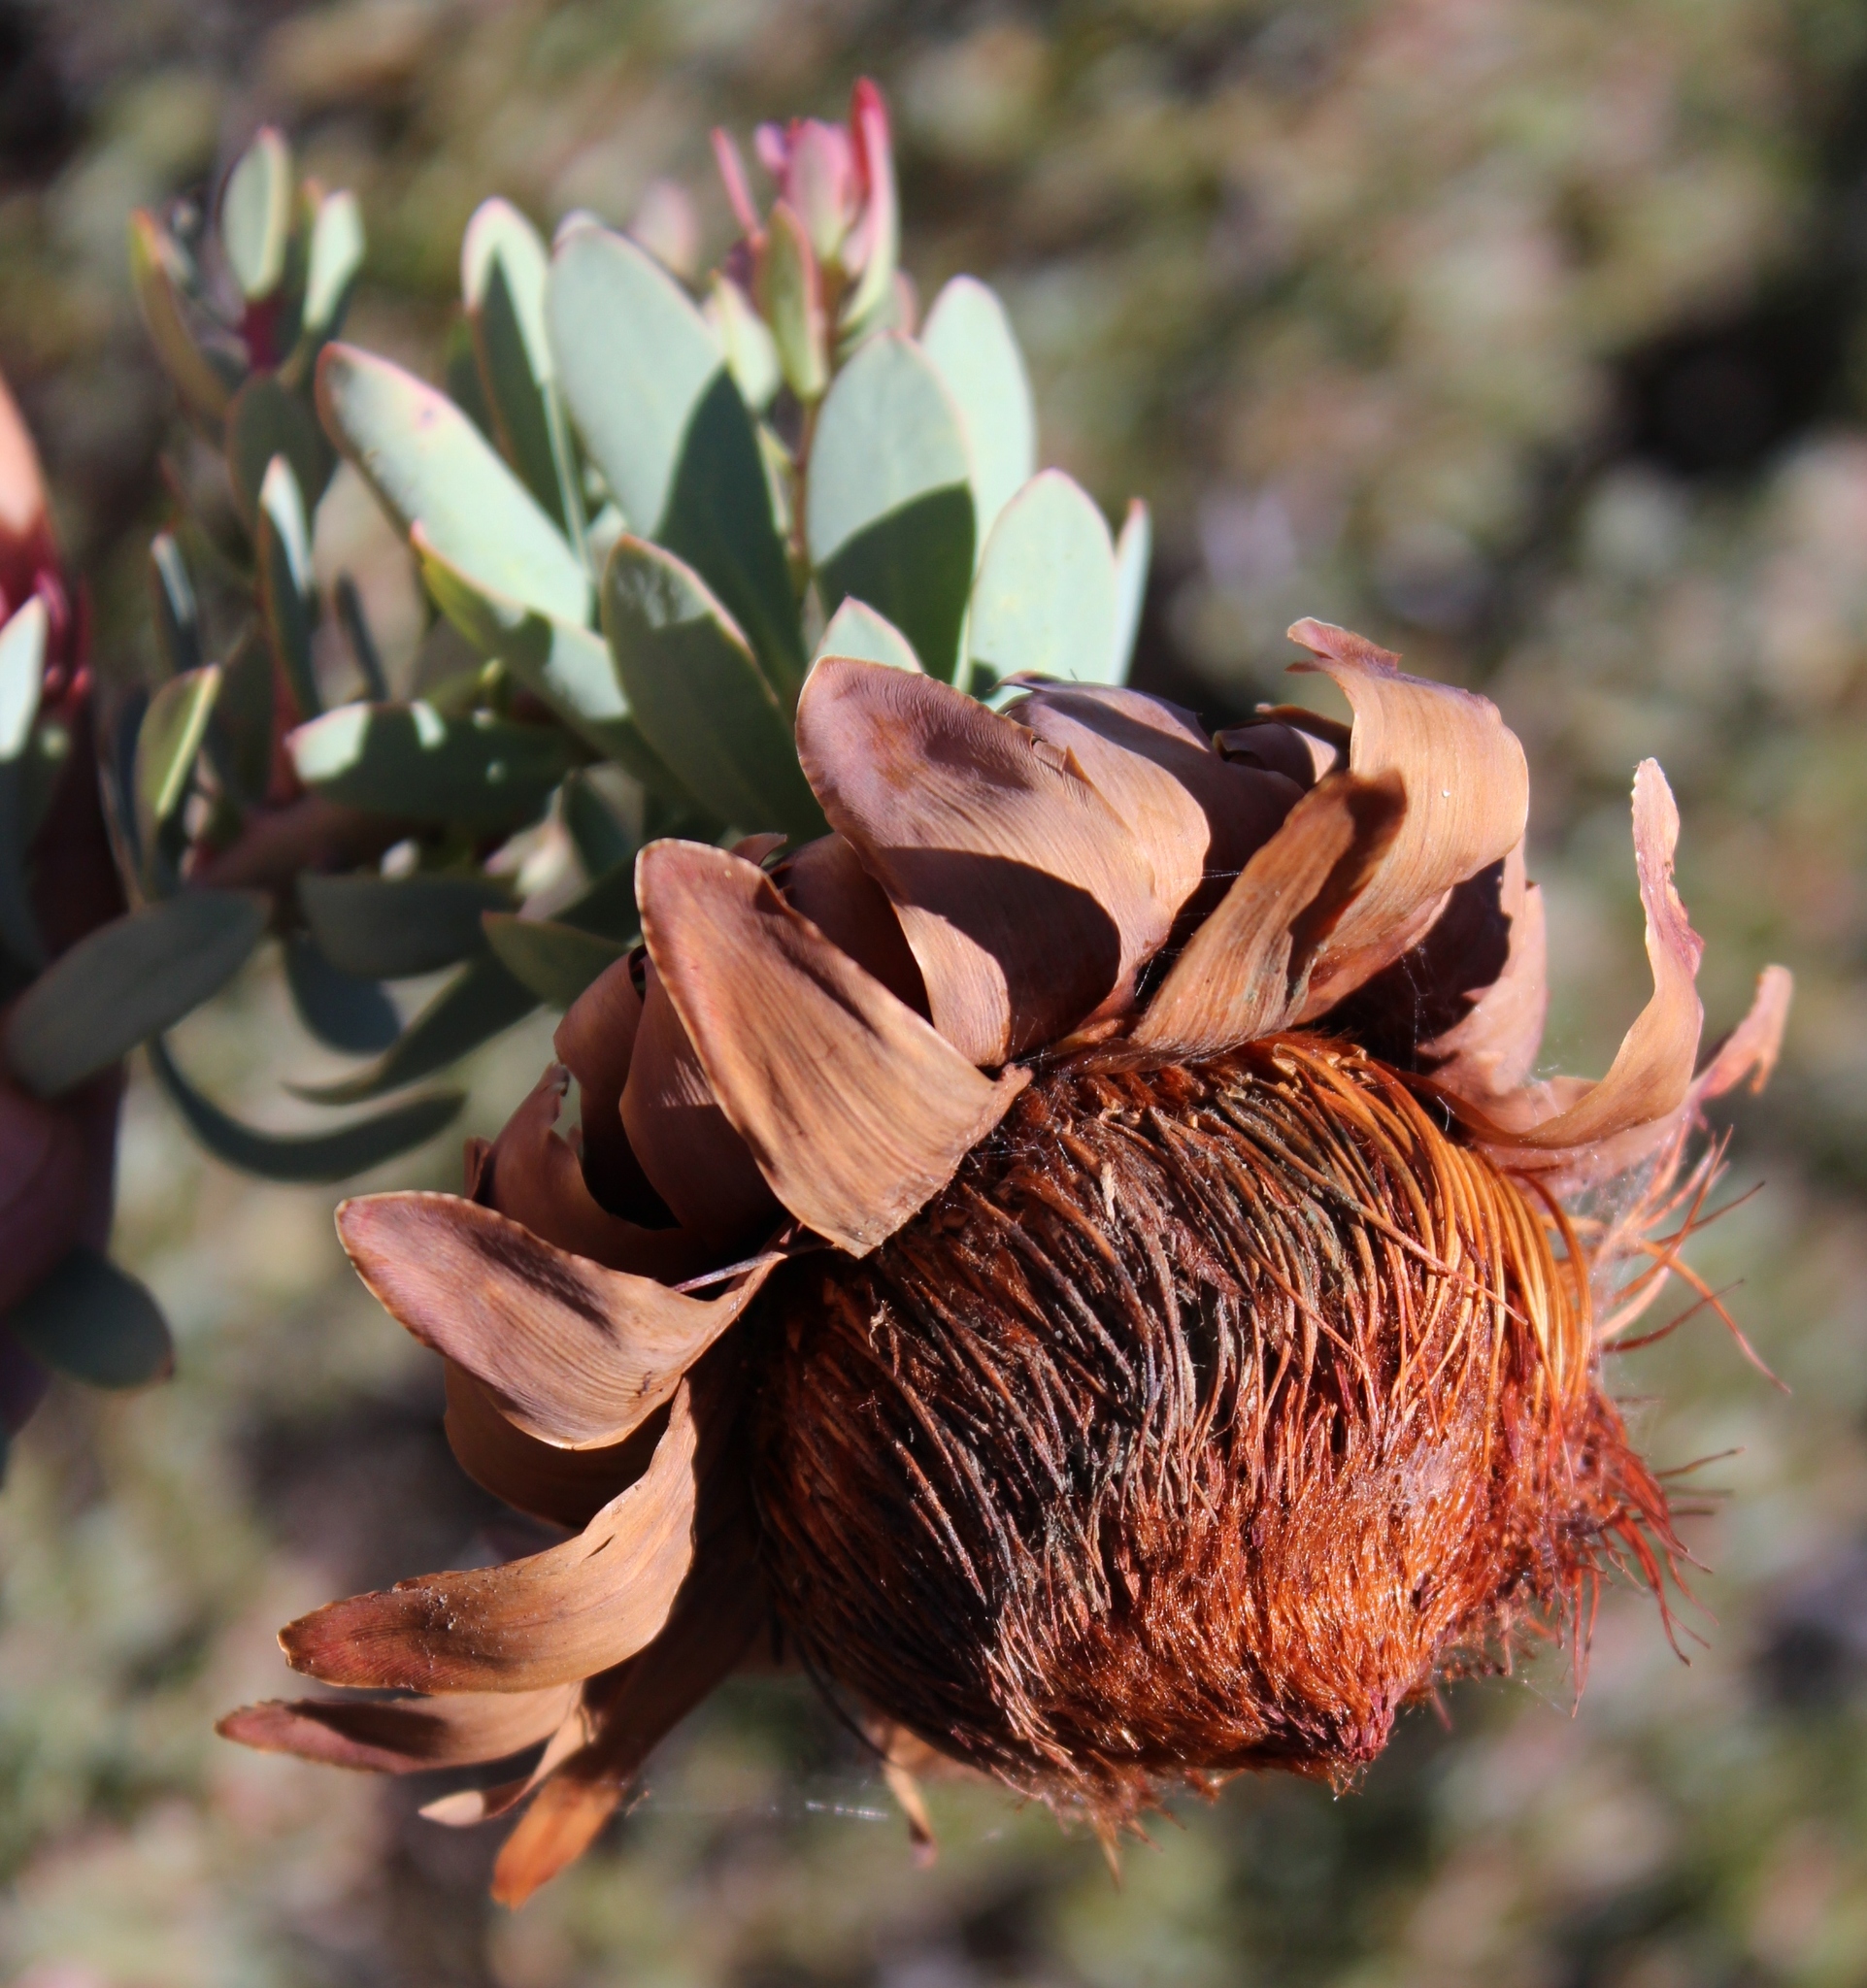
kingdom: Plantae
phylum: Tracheophyta
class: Magnoliopsida
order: Proteales
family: Proteaceae
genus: Protea
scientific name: Protea sulphurea
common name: Sulphur sugarbush
